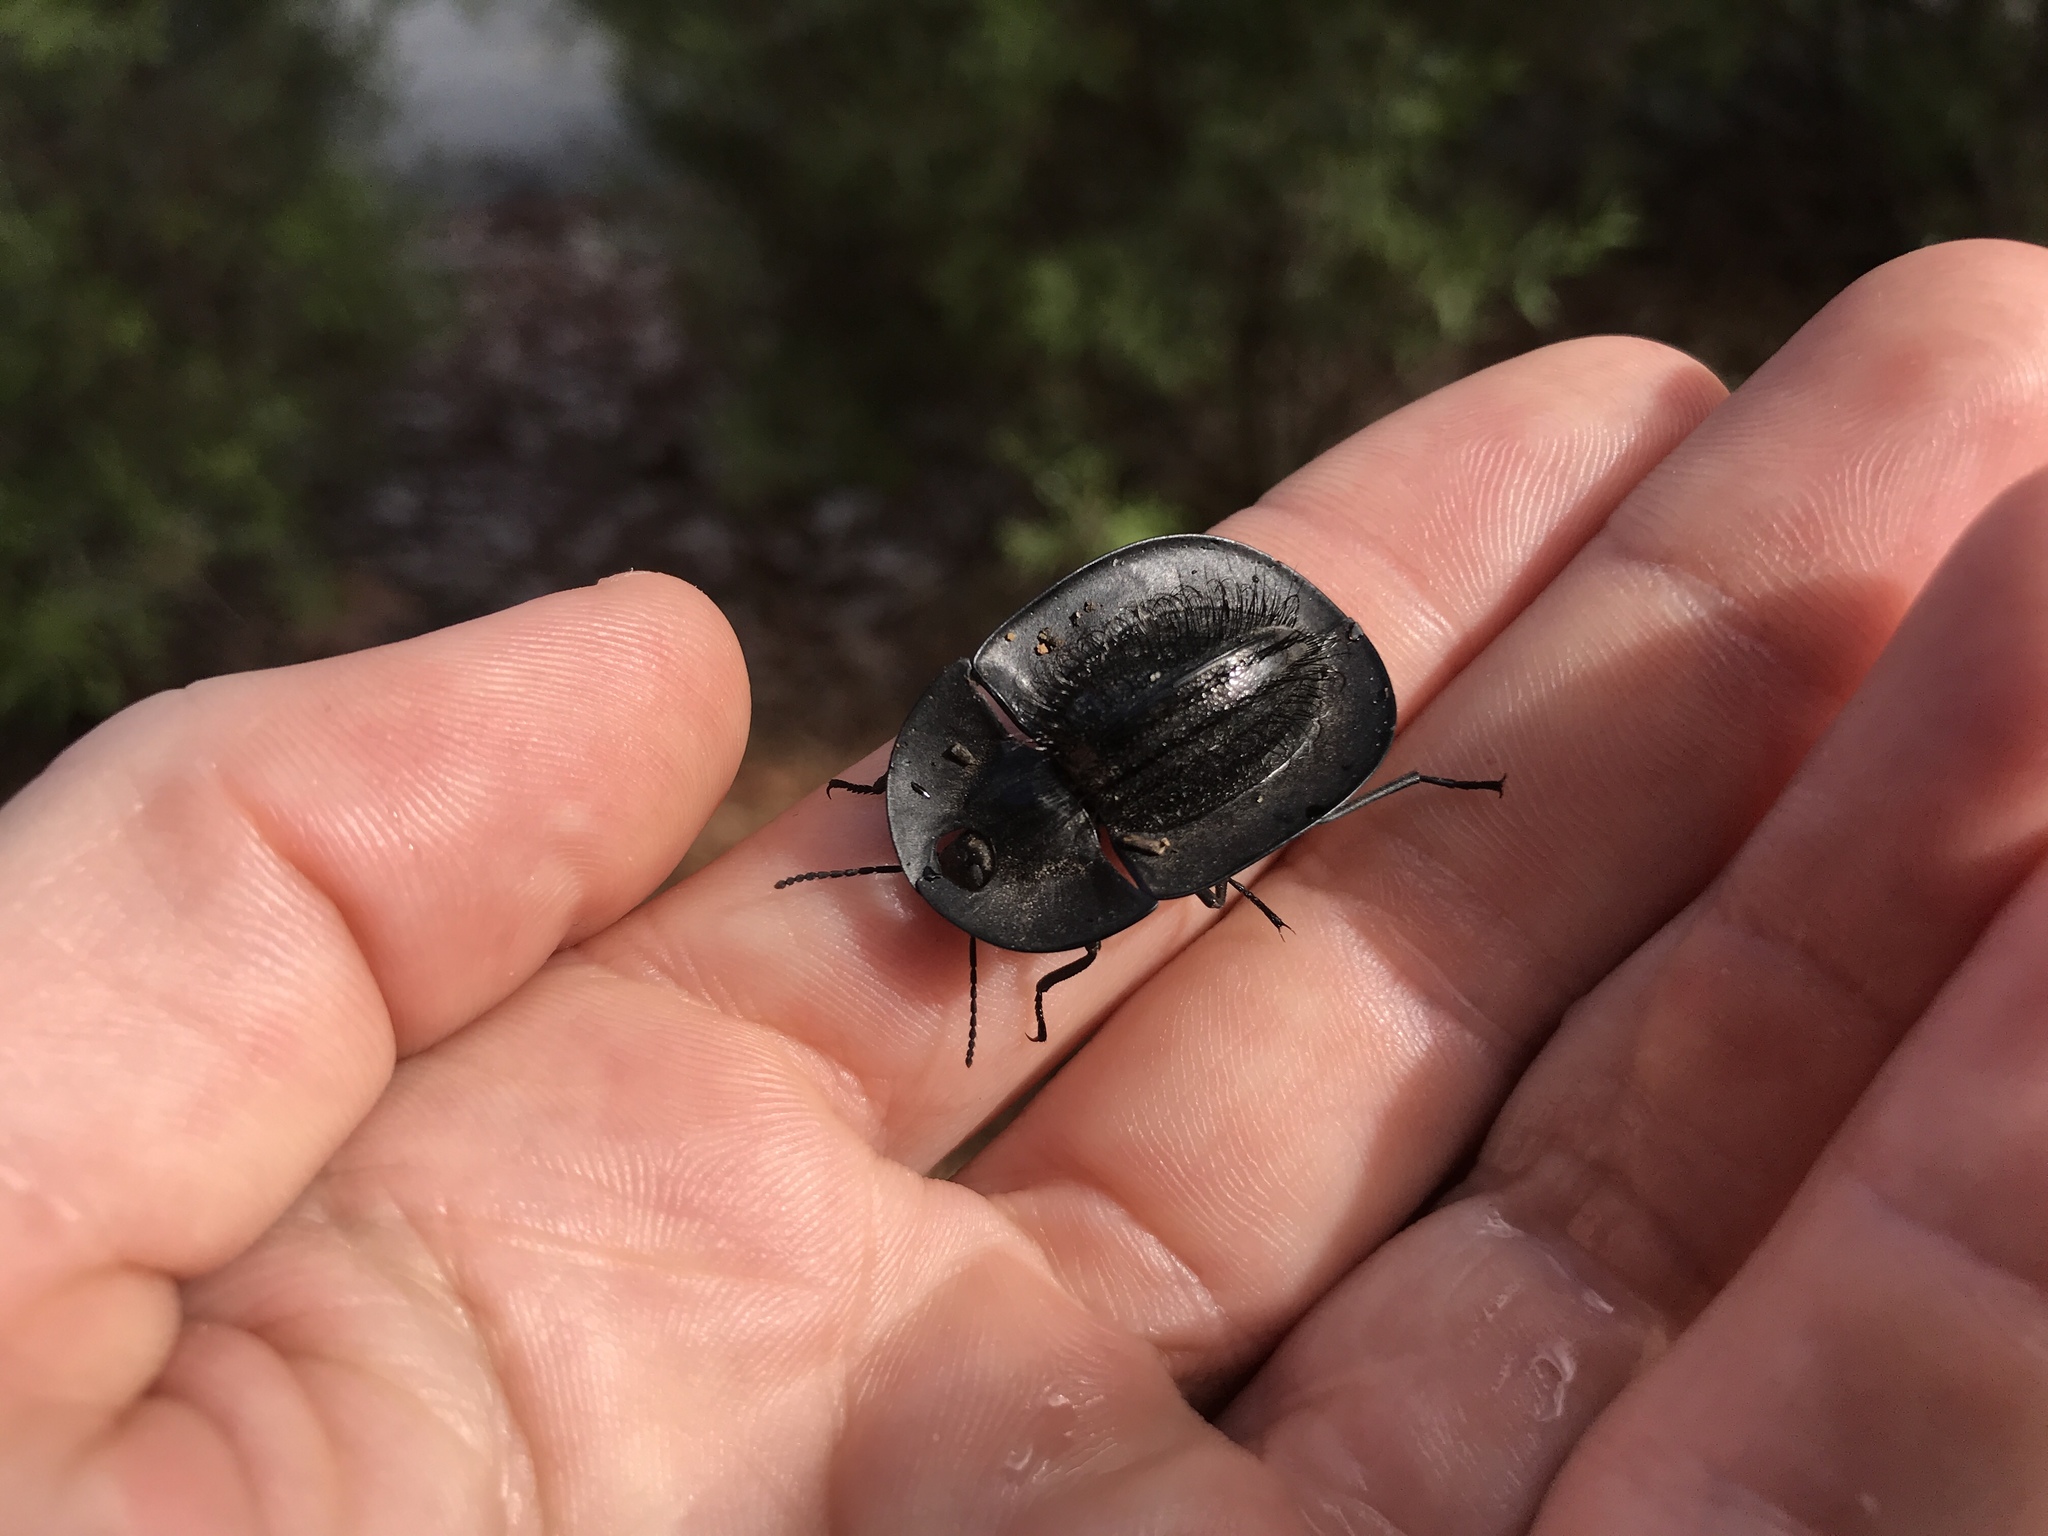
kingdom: Animalia
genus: Heleus
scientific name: Heleus perforatus
